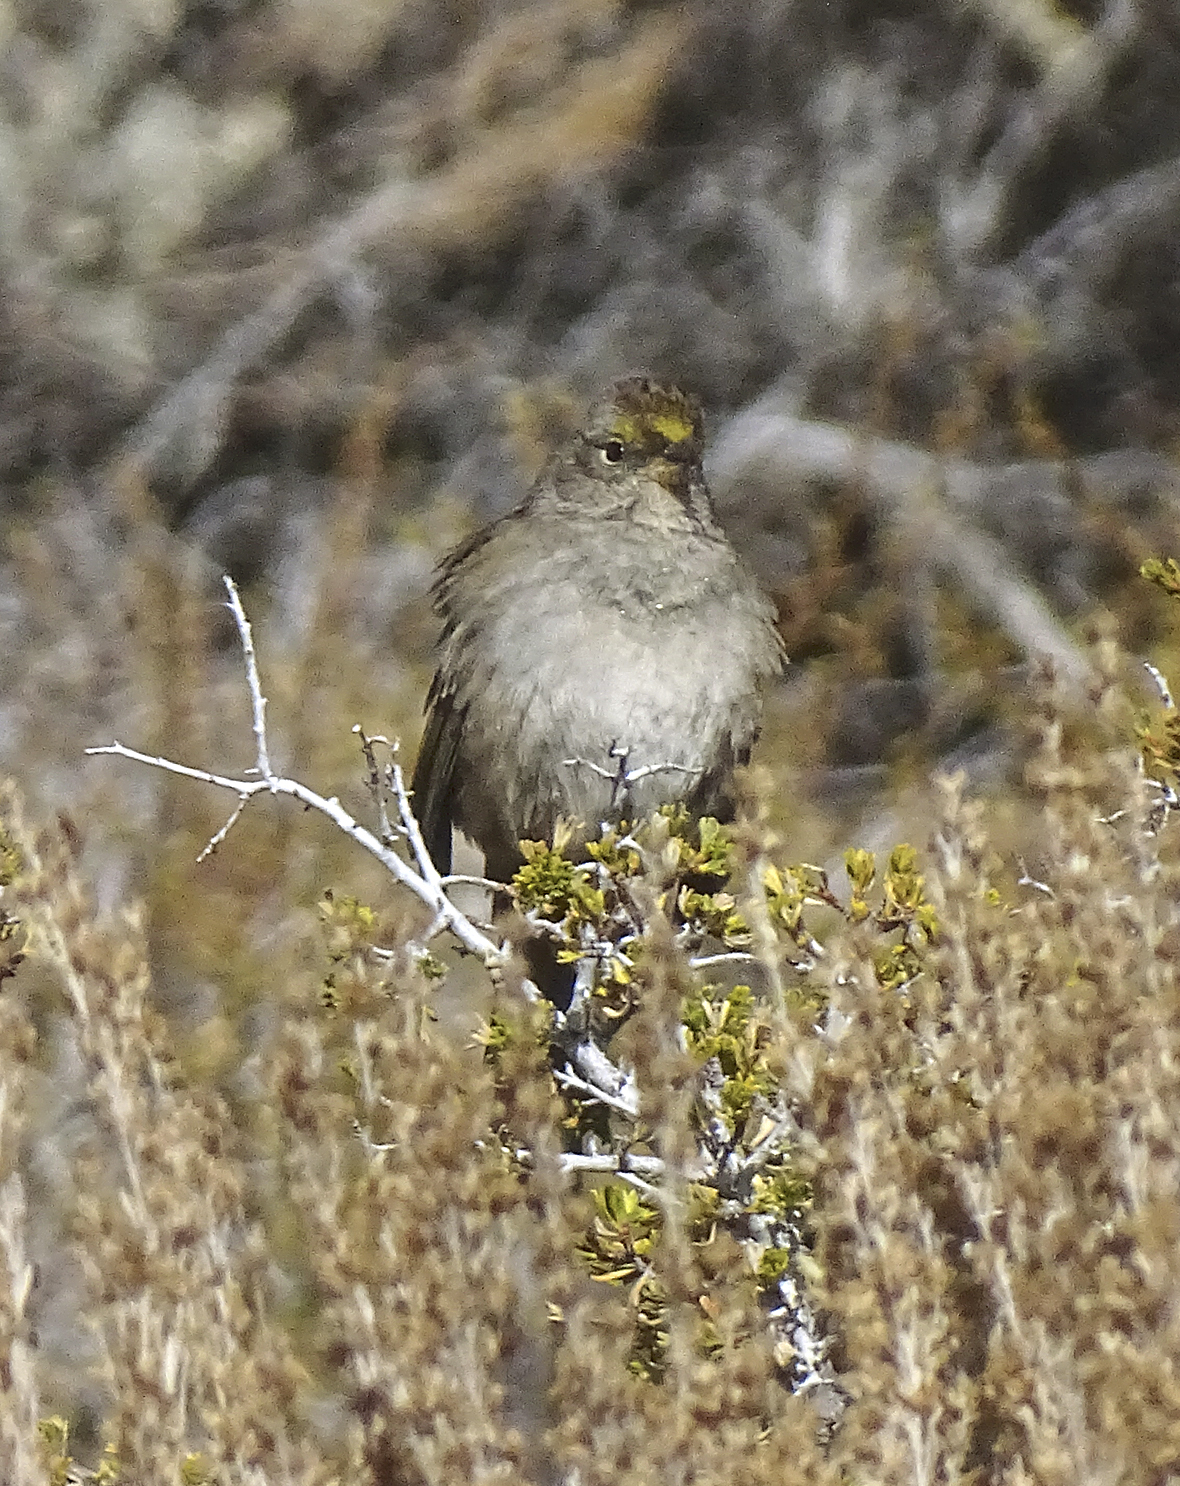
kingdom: Animalia
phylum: Chordata
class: Aves
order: Passeriformes
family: Passerellidae
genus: Zonotrichia
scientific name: Zonotrichia atricapilla
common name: Golden-crowned sparrow
